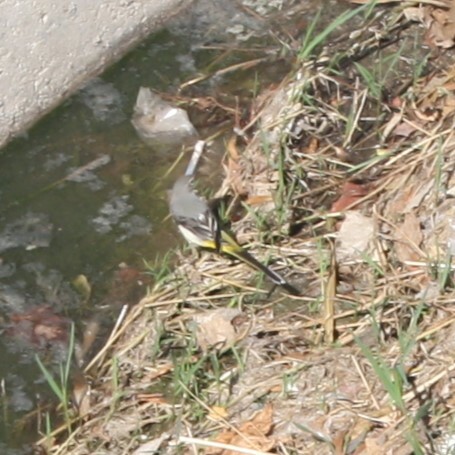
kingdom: Animalia
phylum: Chordata
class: Aves
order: Passeriformes
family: Motacillidae
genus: Motacilla
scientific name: Motacilla cinerea
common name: Grey wagtail
